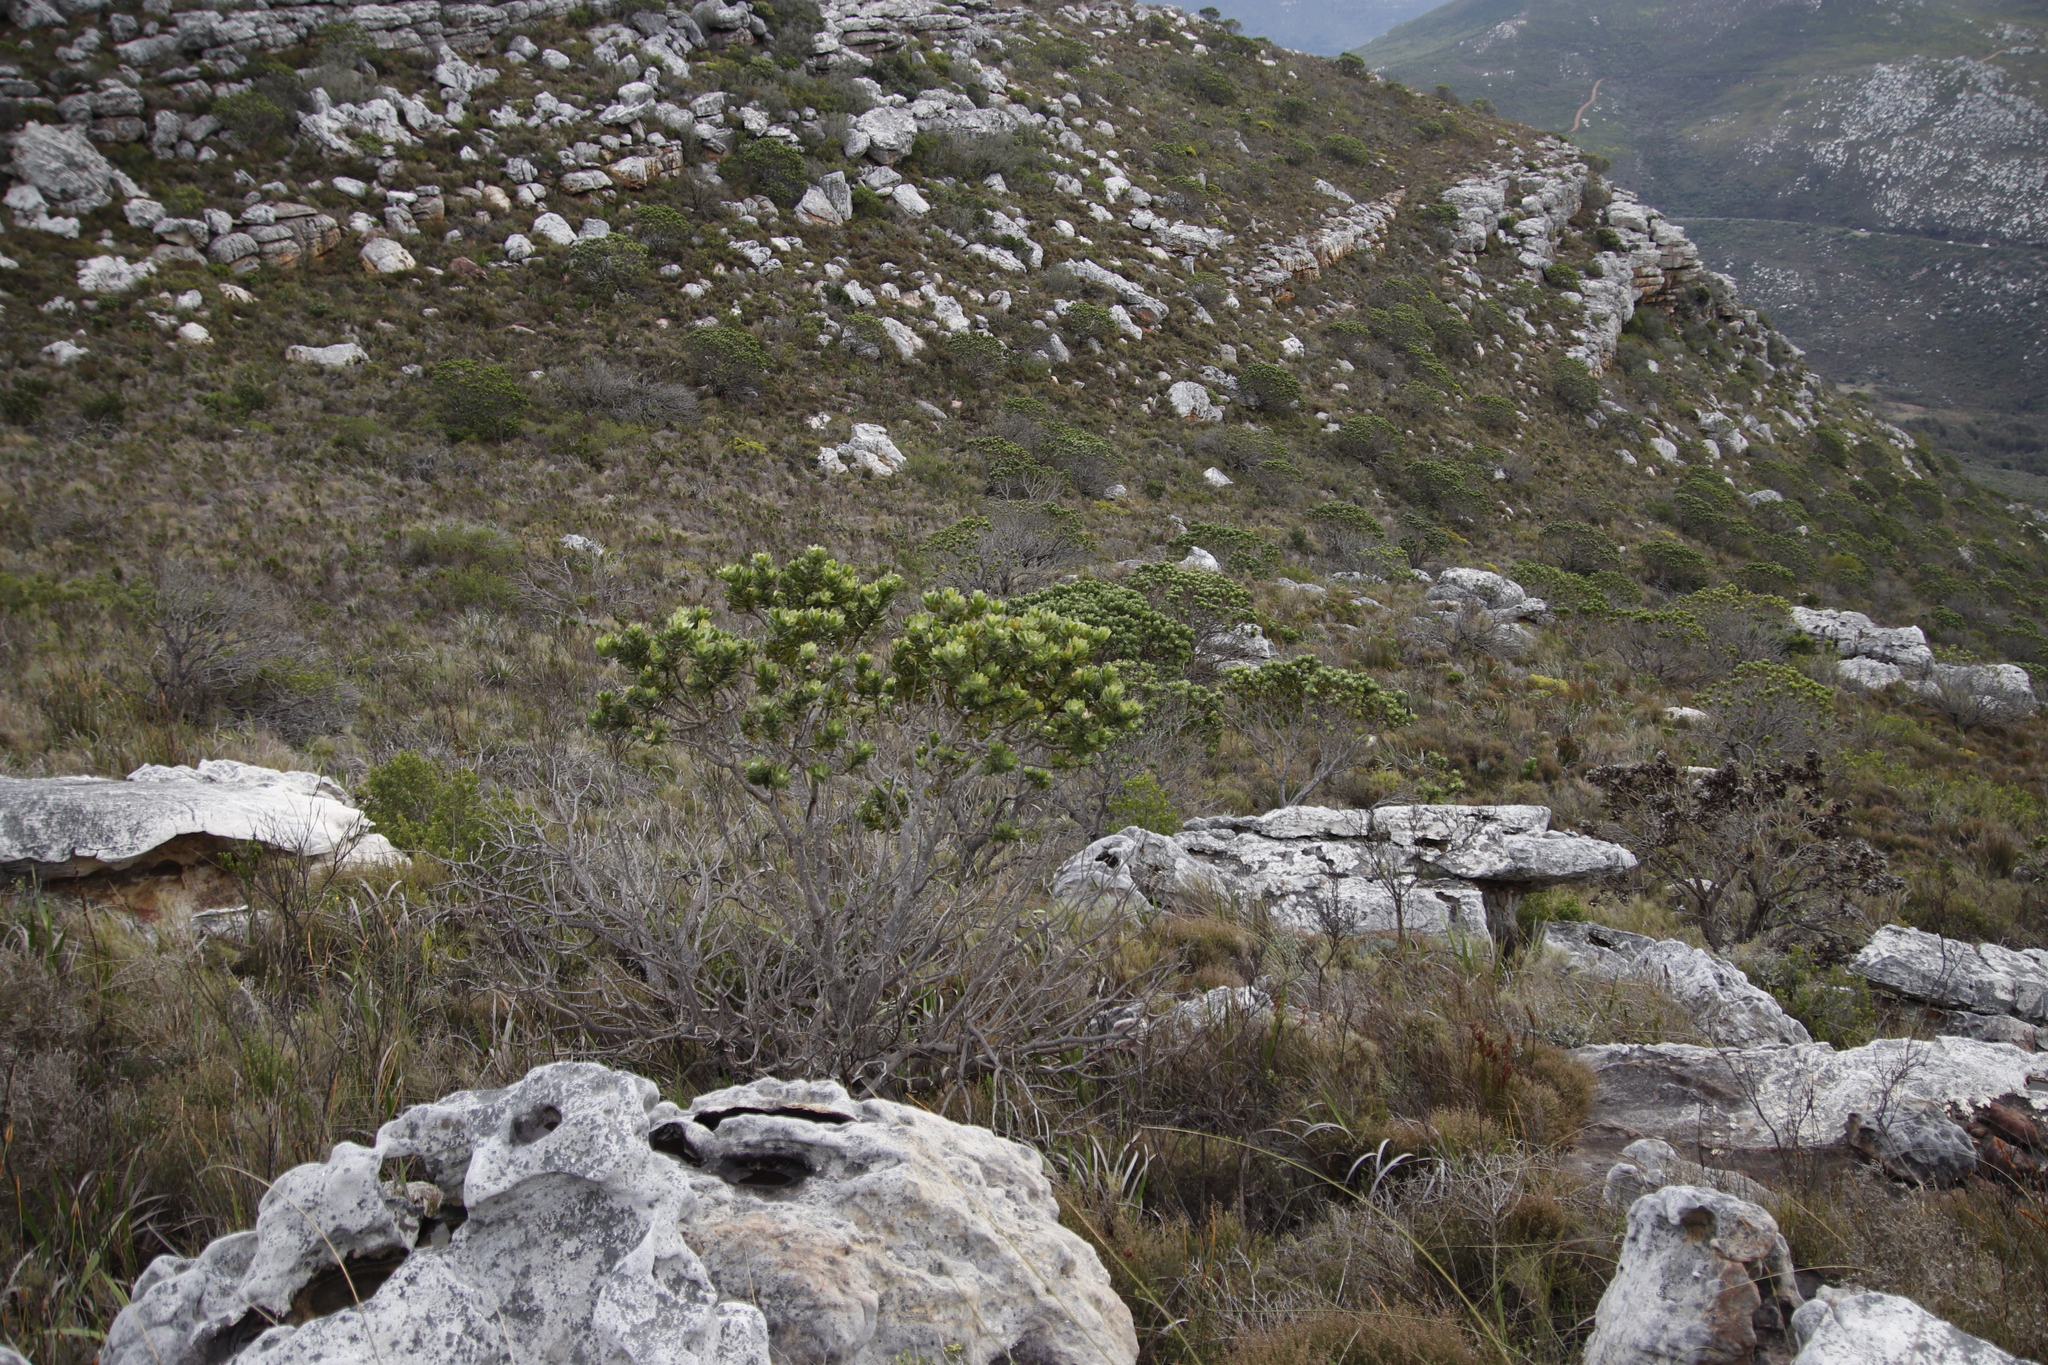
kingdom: Plantae
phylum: Tracheophyta
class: Magnoliopsida
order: Proteales
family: Proteaceae
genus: Leucospermum
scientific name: Leucospermum conocarpodendron
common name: Tree pincushion
